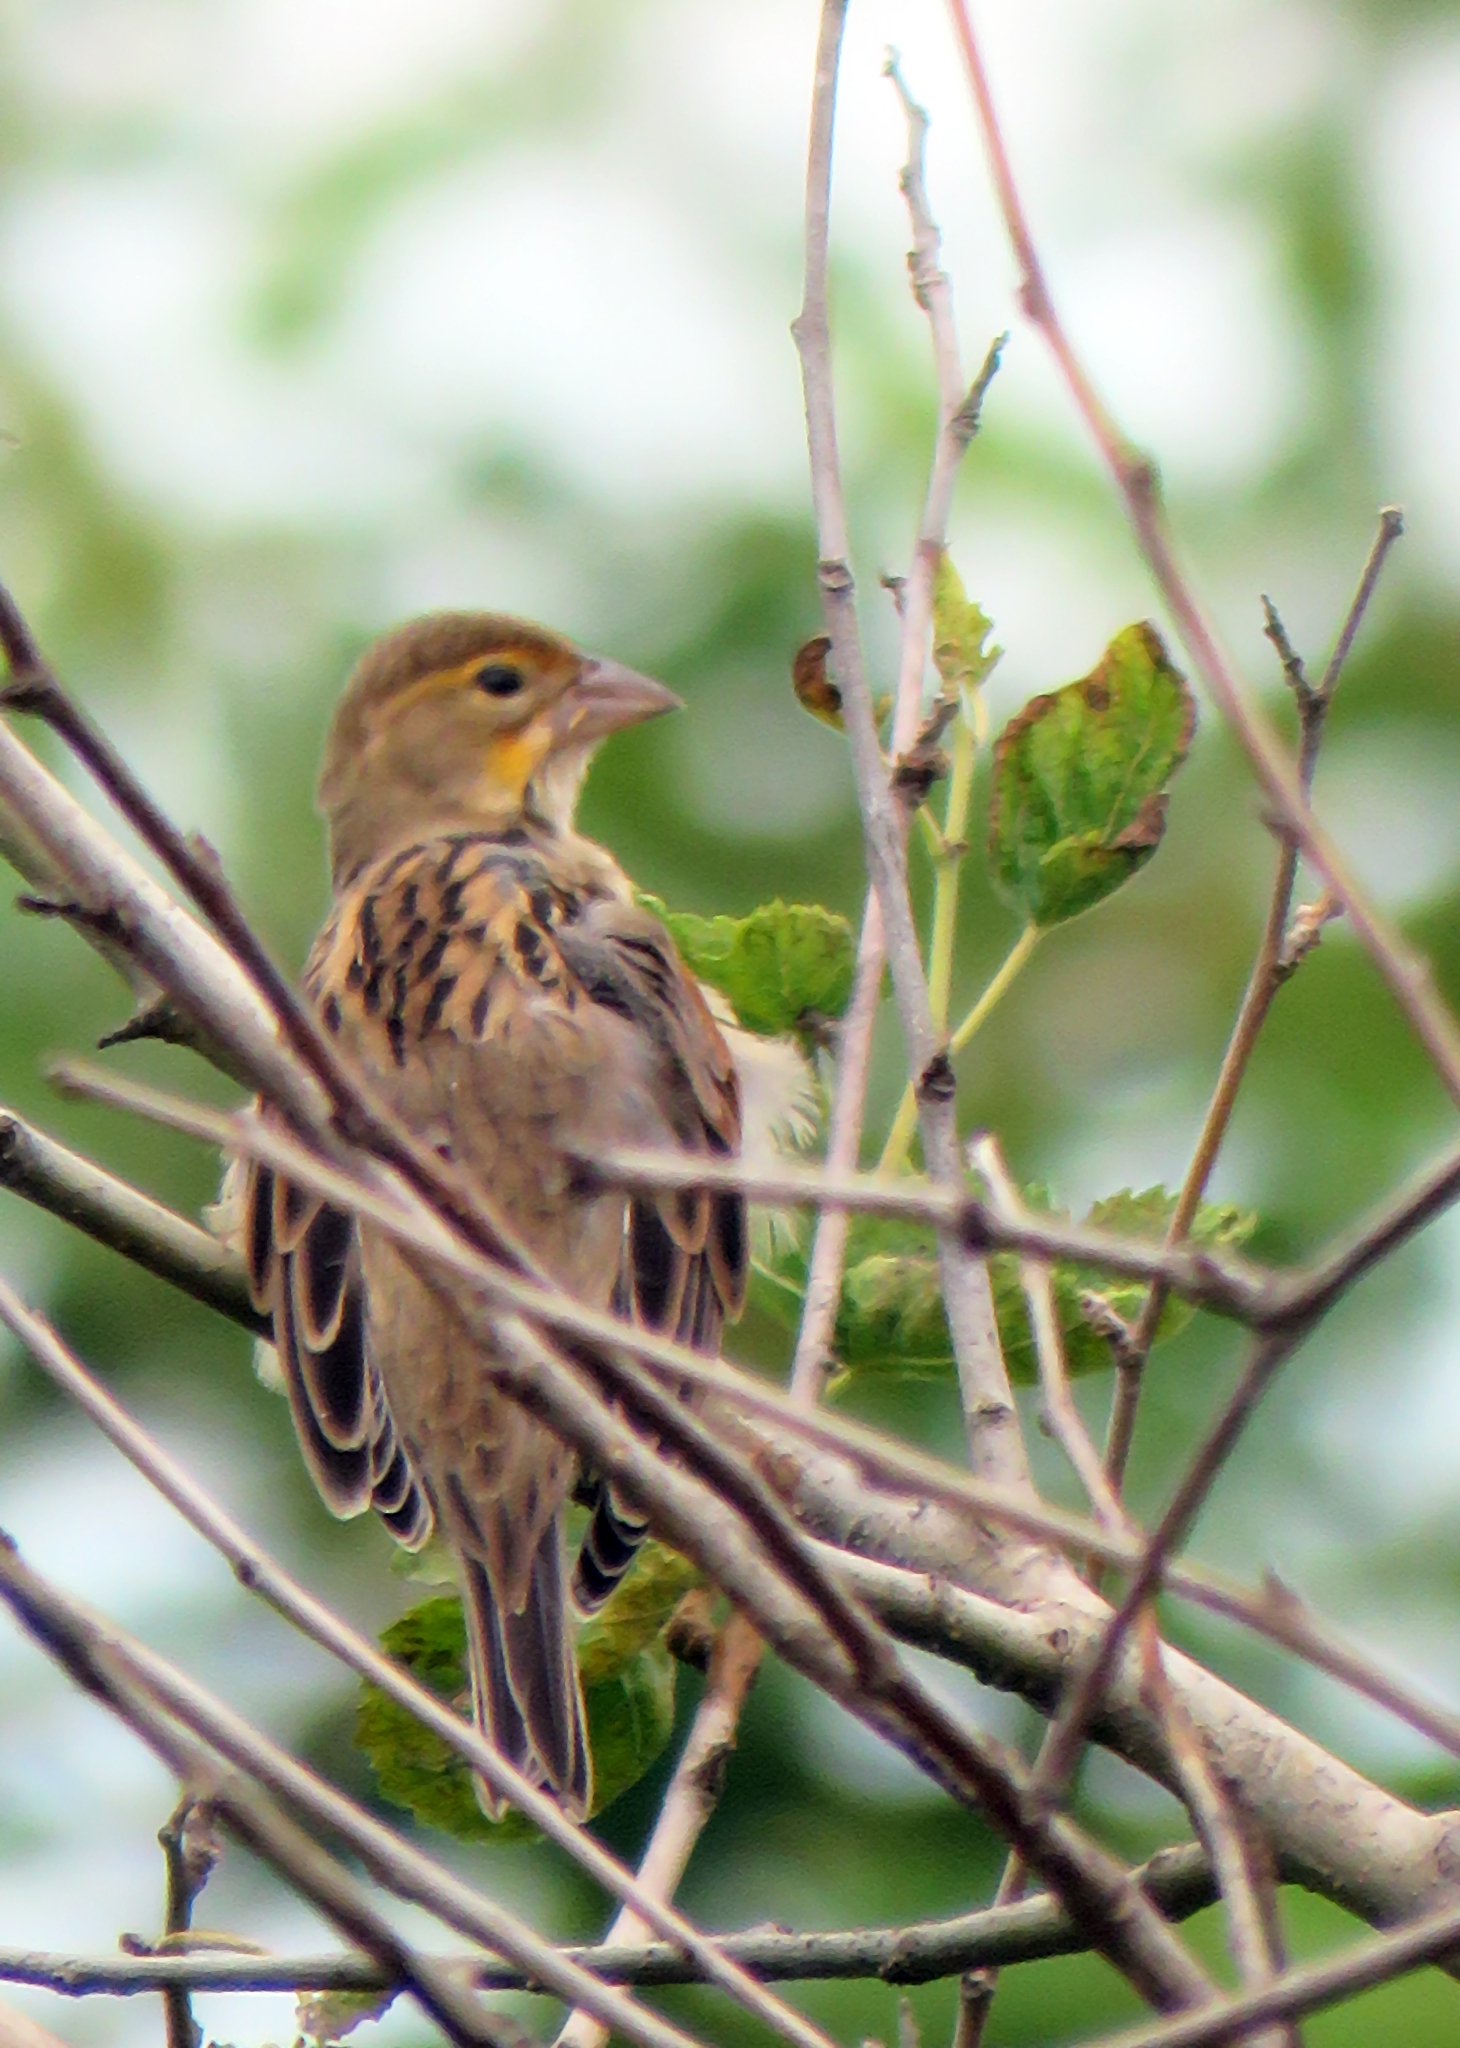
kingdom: Animalia
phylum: Chordata
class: Aves
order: Passeriformes
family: Cardinalidae
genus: Spiza
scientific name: Spiza americana
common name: Dickcissel
